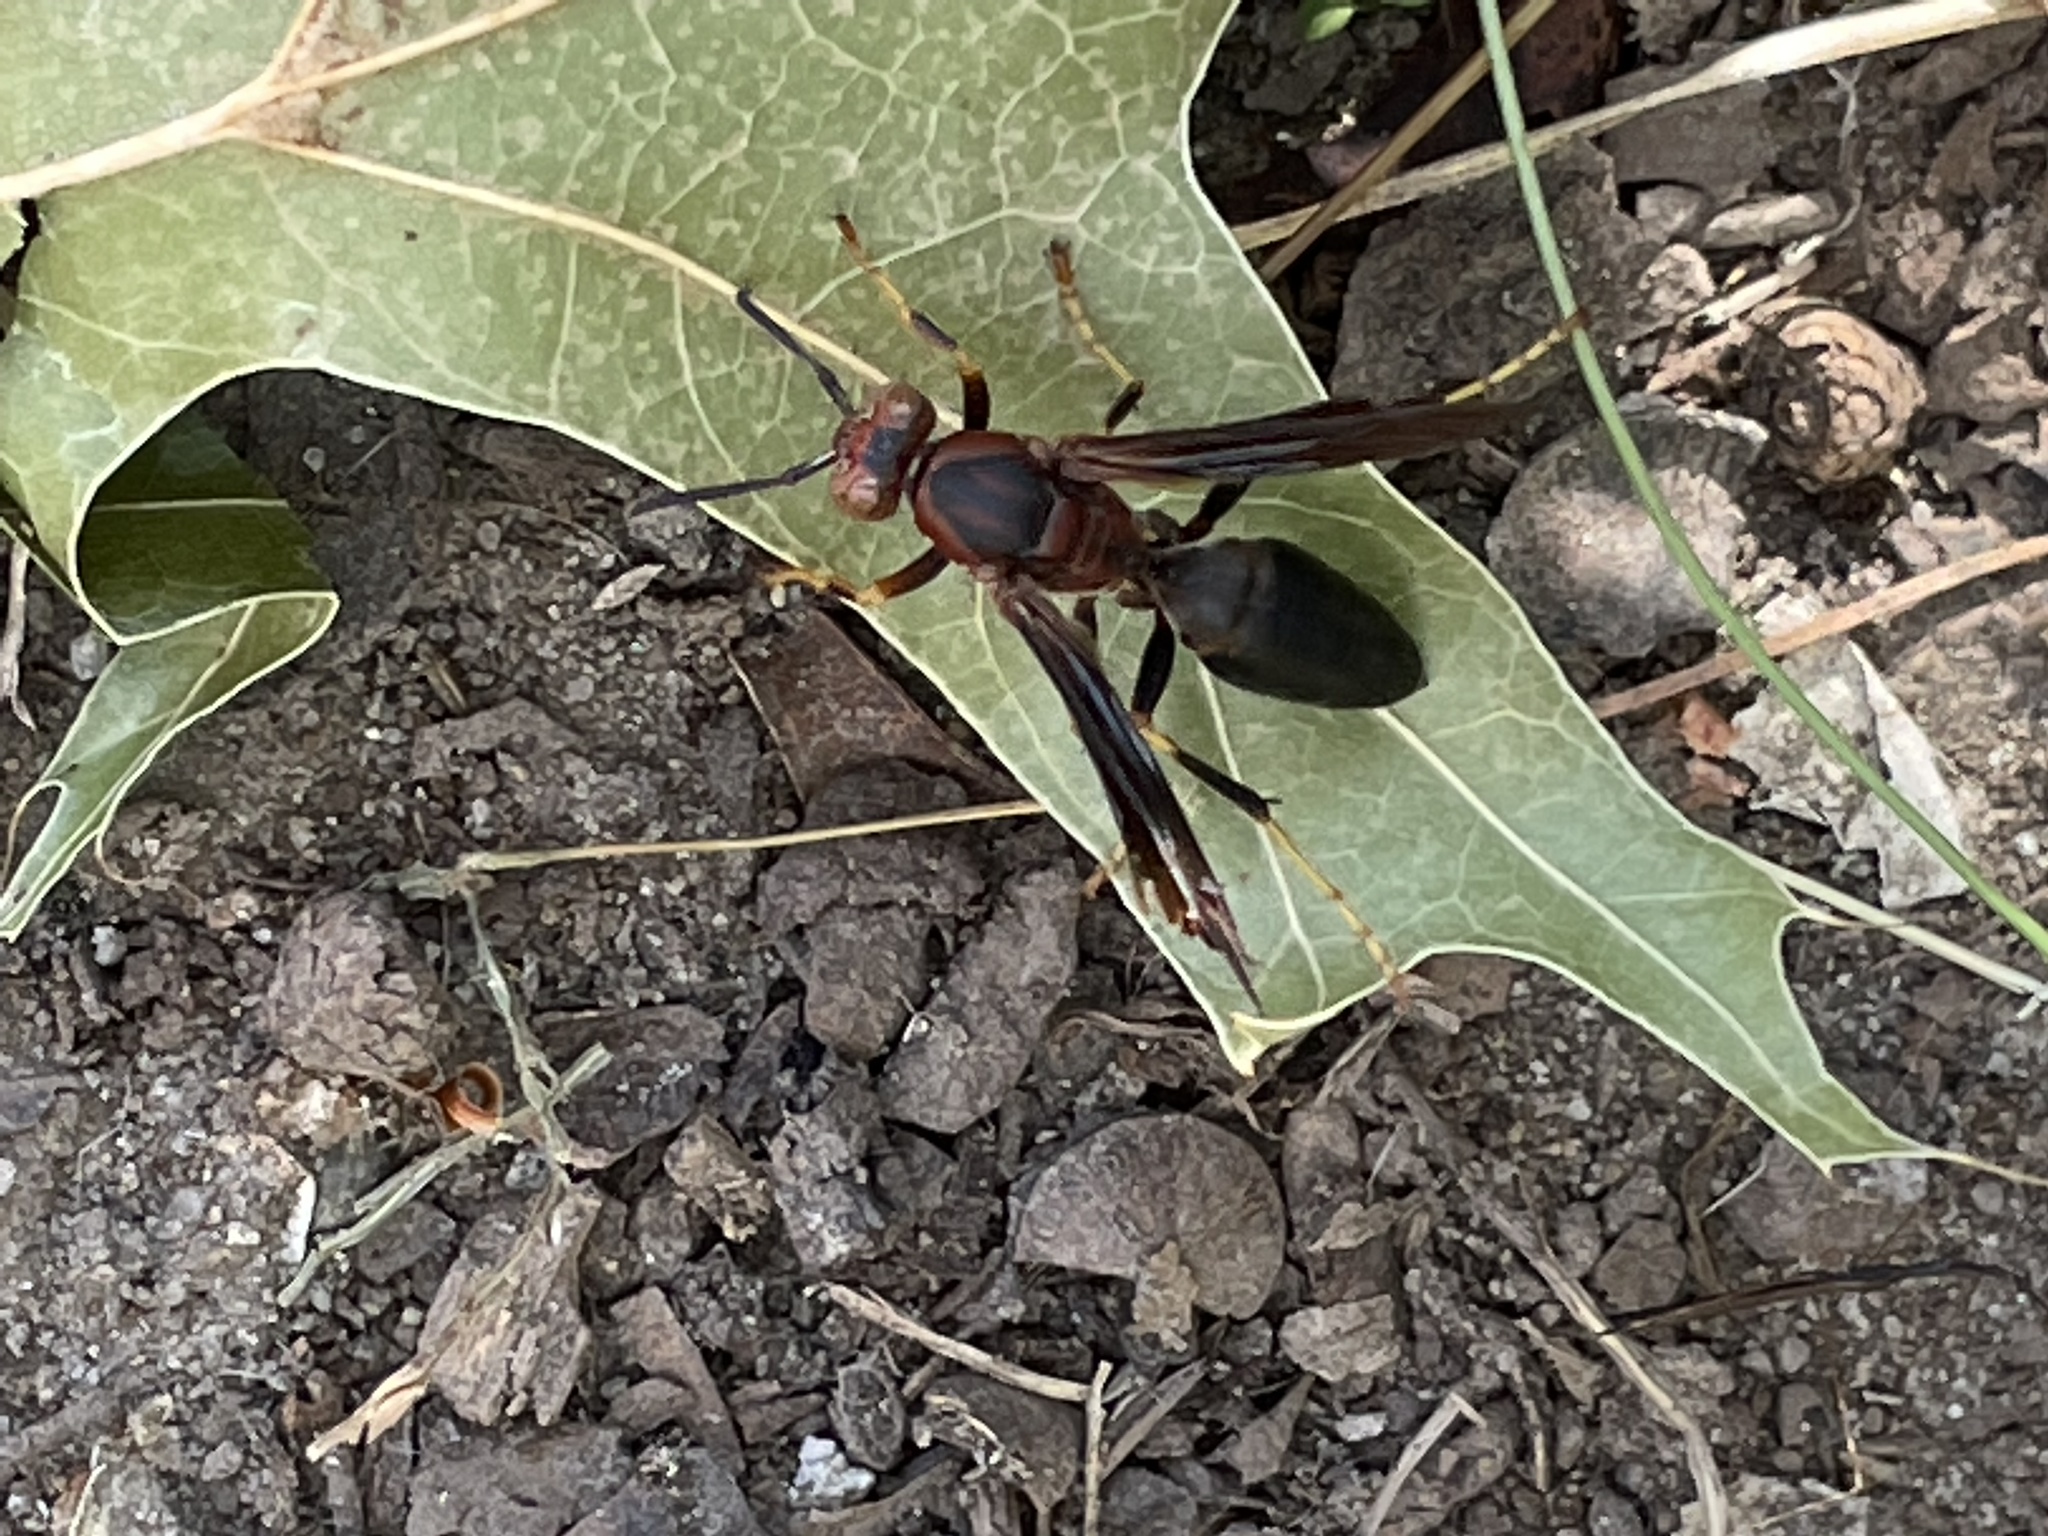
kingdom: Animalia
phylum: Arthropoda
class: Insecta
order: Hymenoptera
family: Eumenidae
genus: Polistes
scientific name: Polistes metricus
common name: Metric paper wasp
